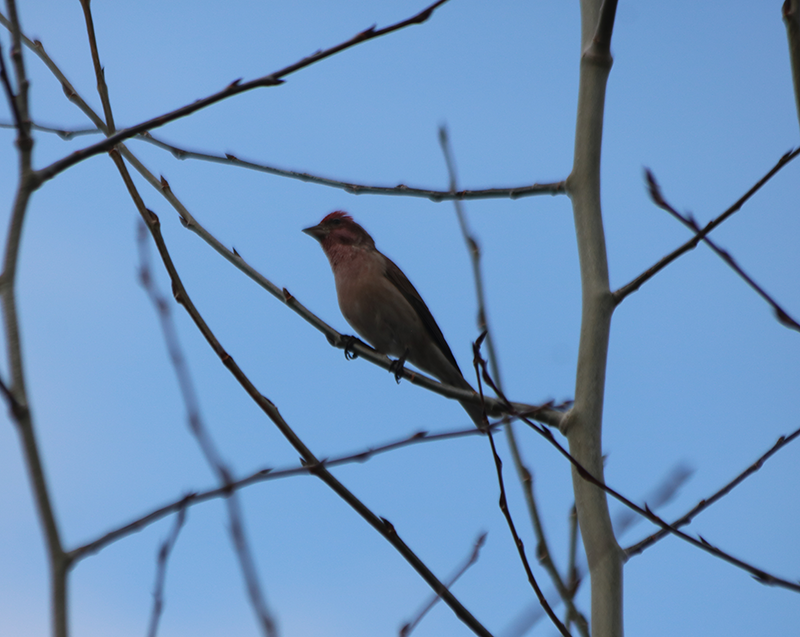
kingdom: Animalia
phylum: Chordata
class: Aves
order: Passeriformes
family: Fringillidae
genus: Haemorhous
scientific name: Haemorhous cassinii
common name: Cassin's finch
